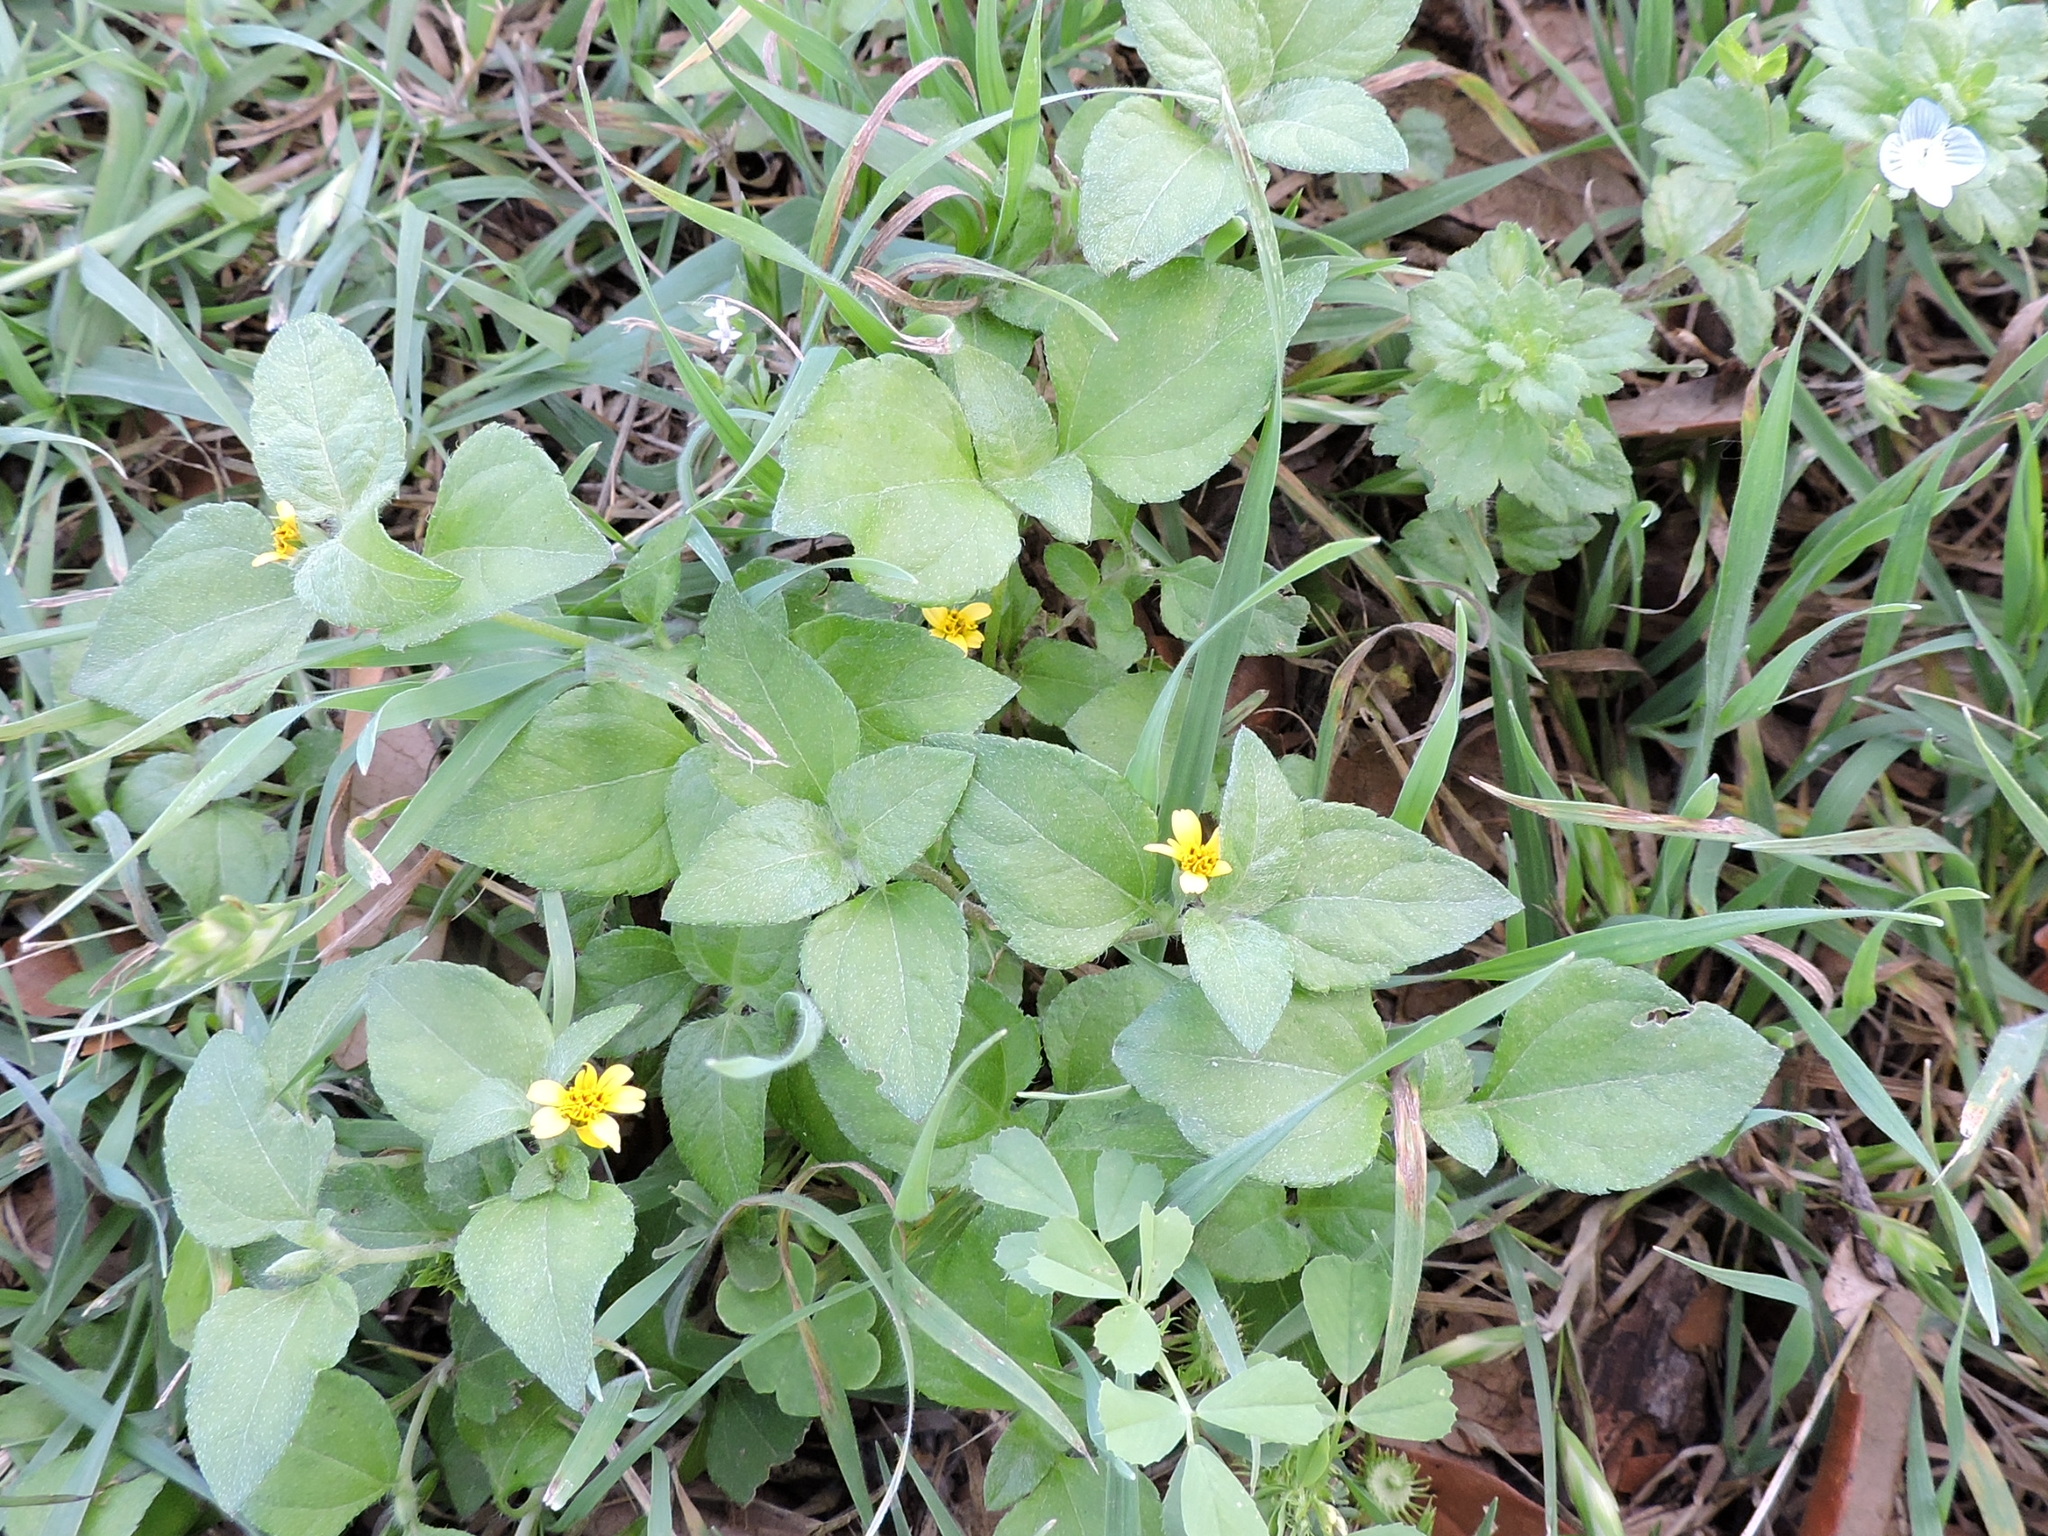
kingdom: Plantae
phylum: Tracheophyta
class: Magnoliopsida
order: Asterales
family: Asteraceae
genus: Calyptocarpus
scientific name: Calyptocarpus vialis
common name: Straggler daisy
